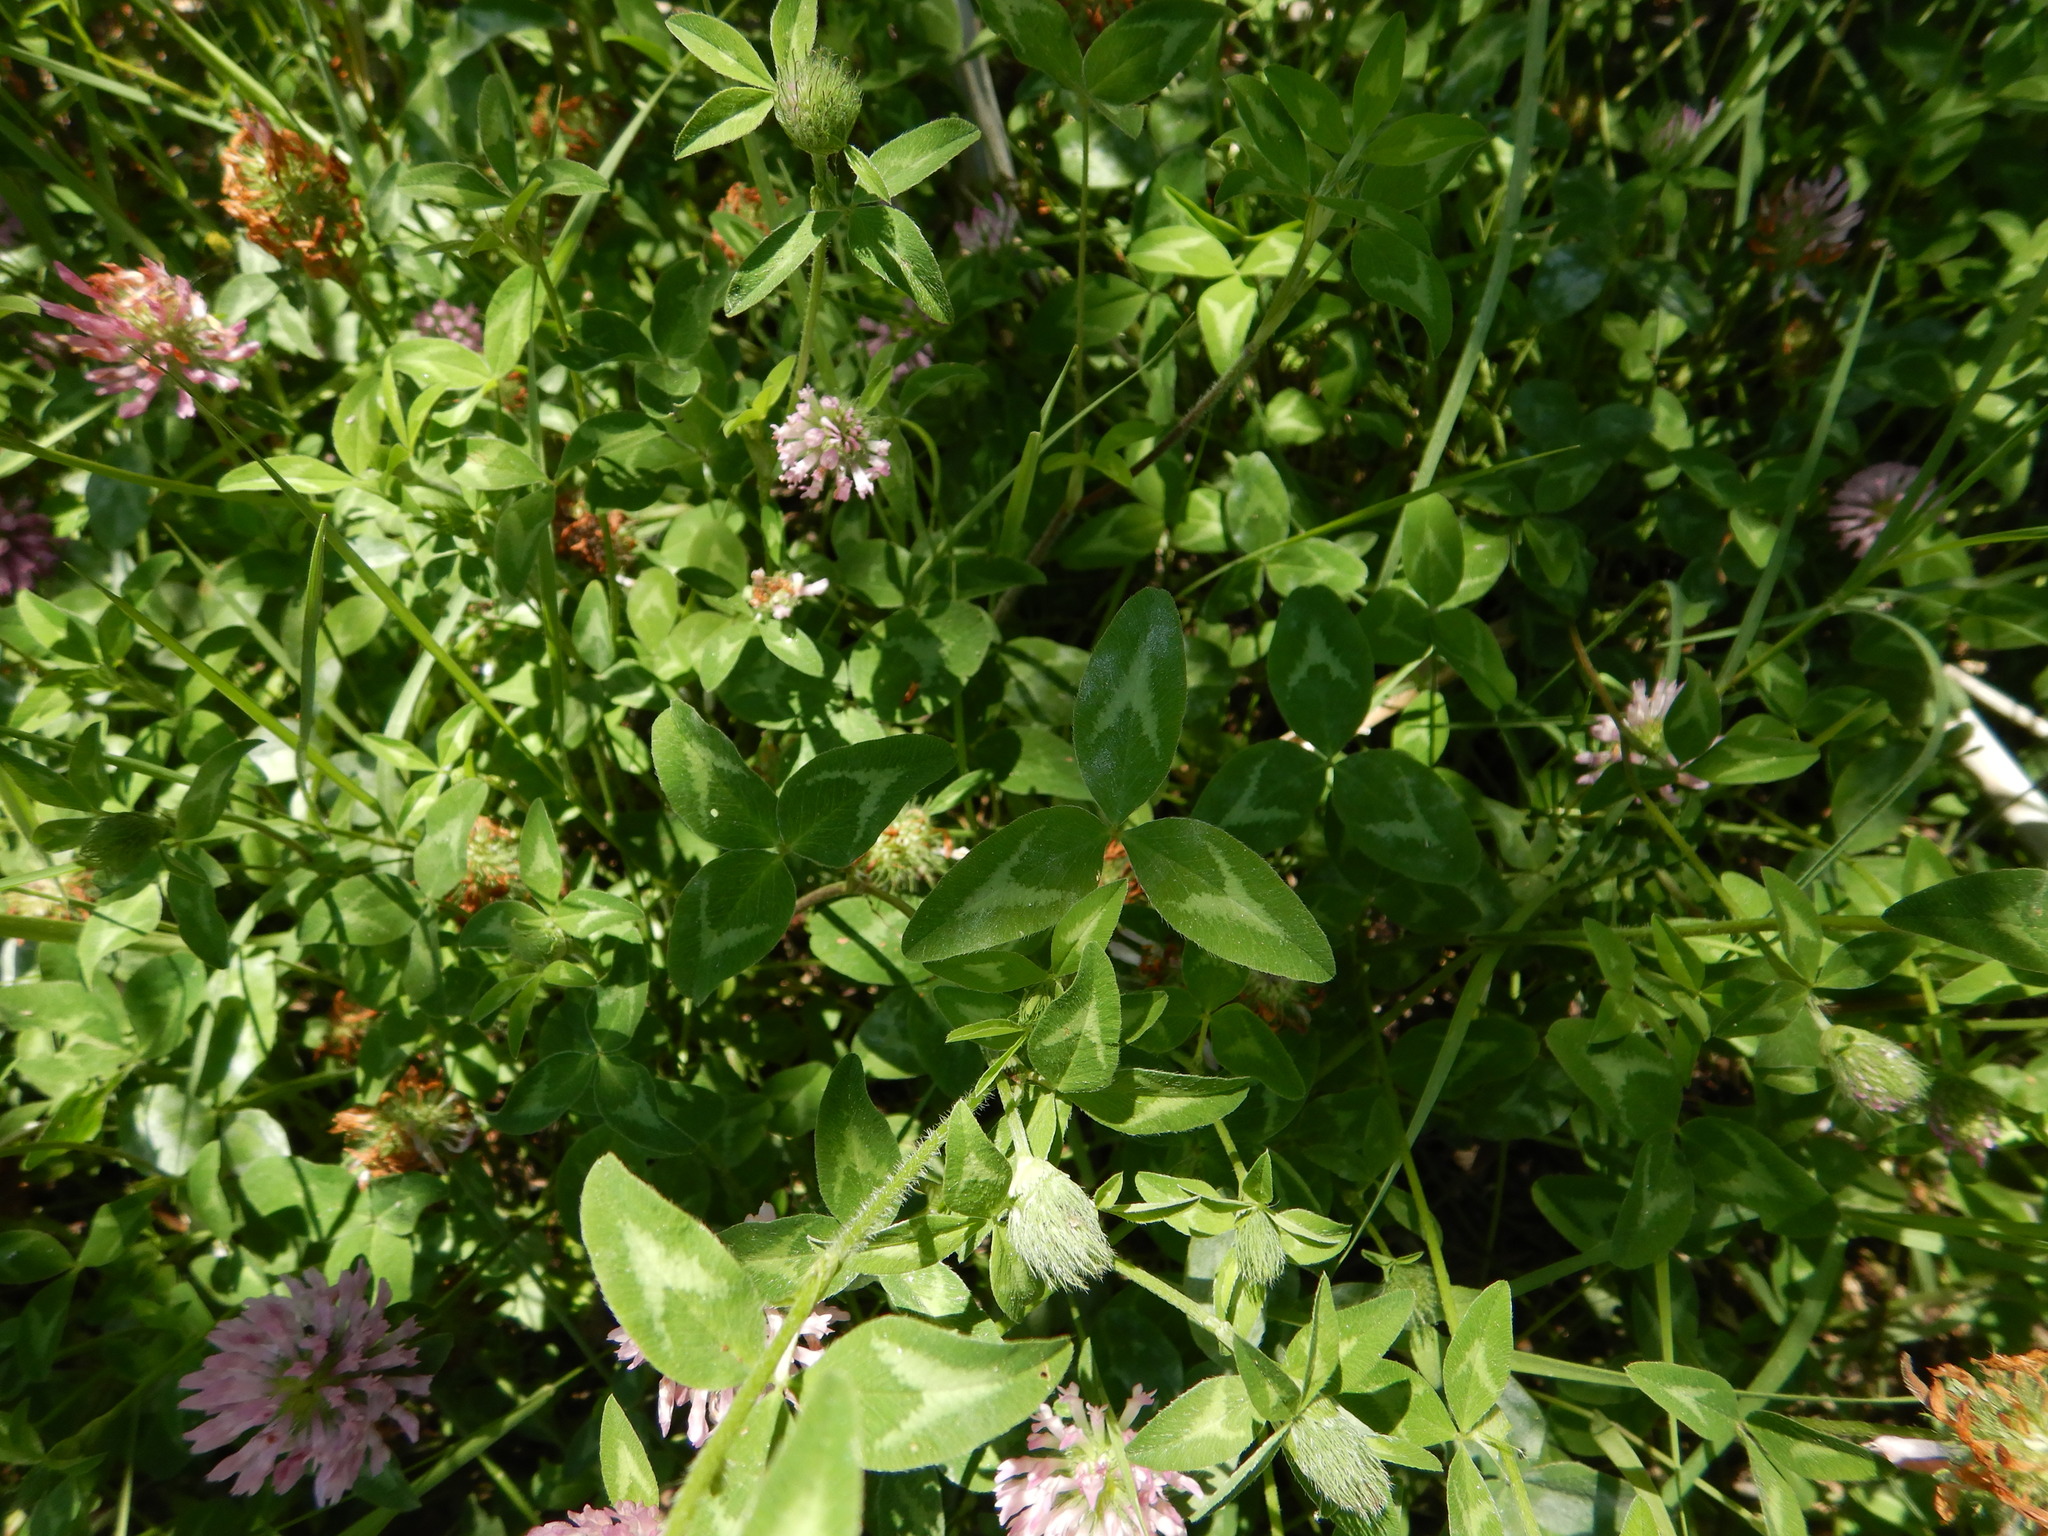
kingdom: Plantae
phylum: Tracheophyta
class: Magnoliopsida
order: Fabales
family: Fabaceae
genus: Trifolium
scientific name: Trifolium pratense
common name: Red clover
